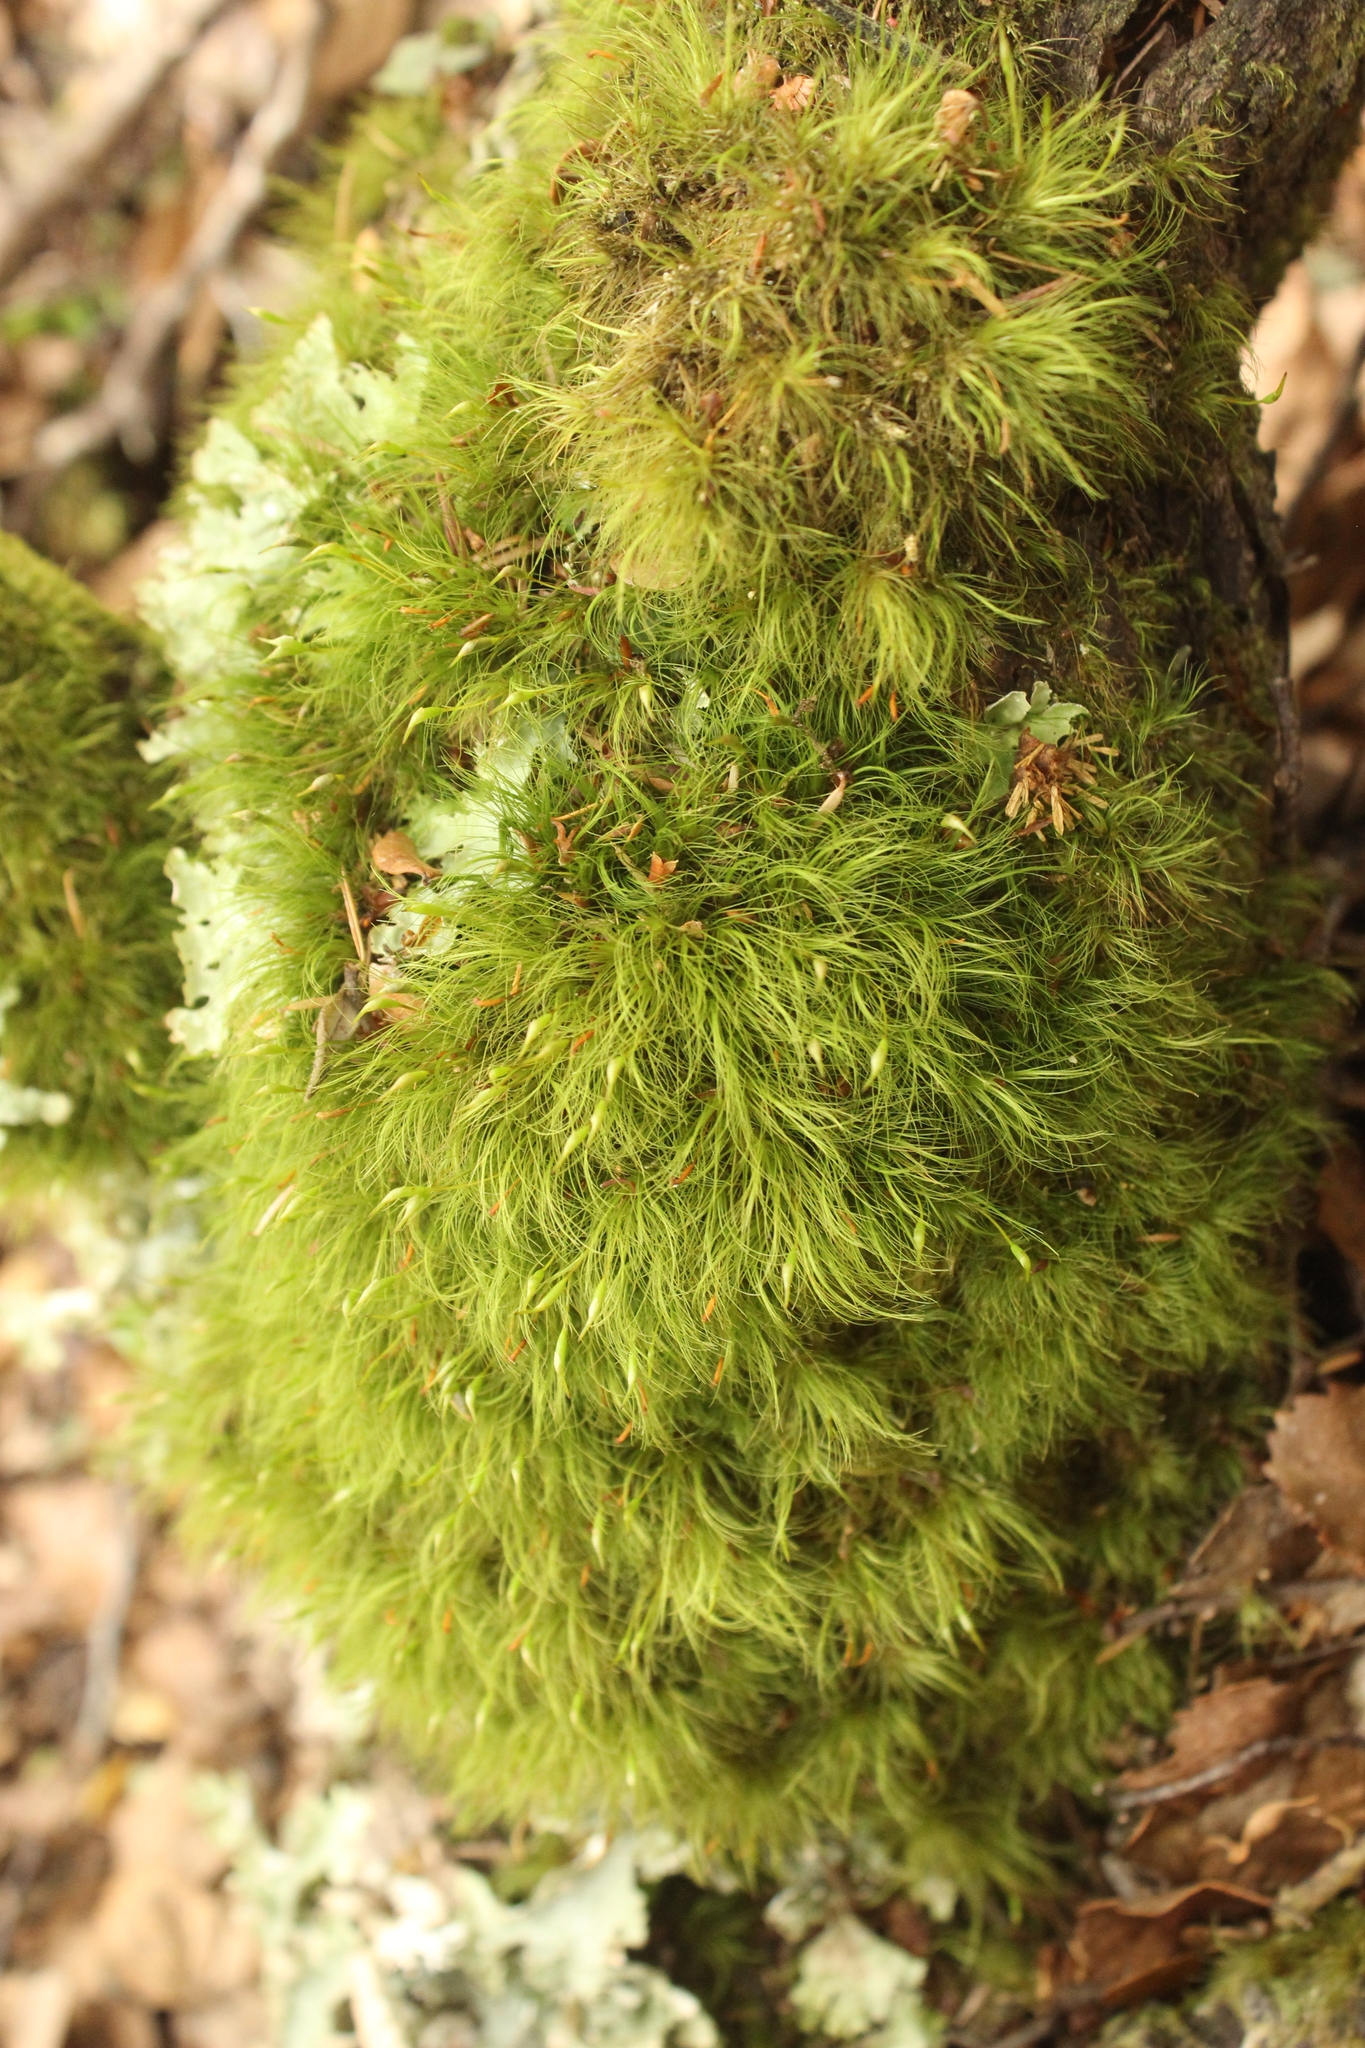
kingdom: Plantae
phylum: Bryophyta
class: Bryopsida
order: Dicranales
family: Dicranaceae
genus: Dicranoloma
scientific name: Dicranoloma menziesii
